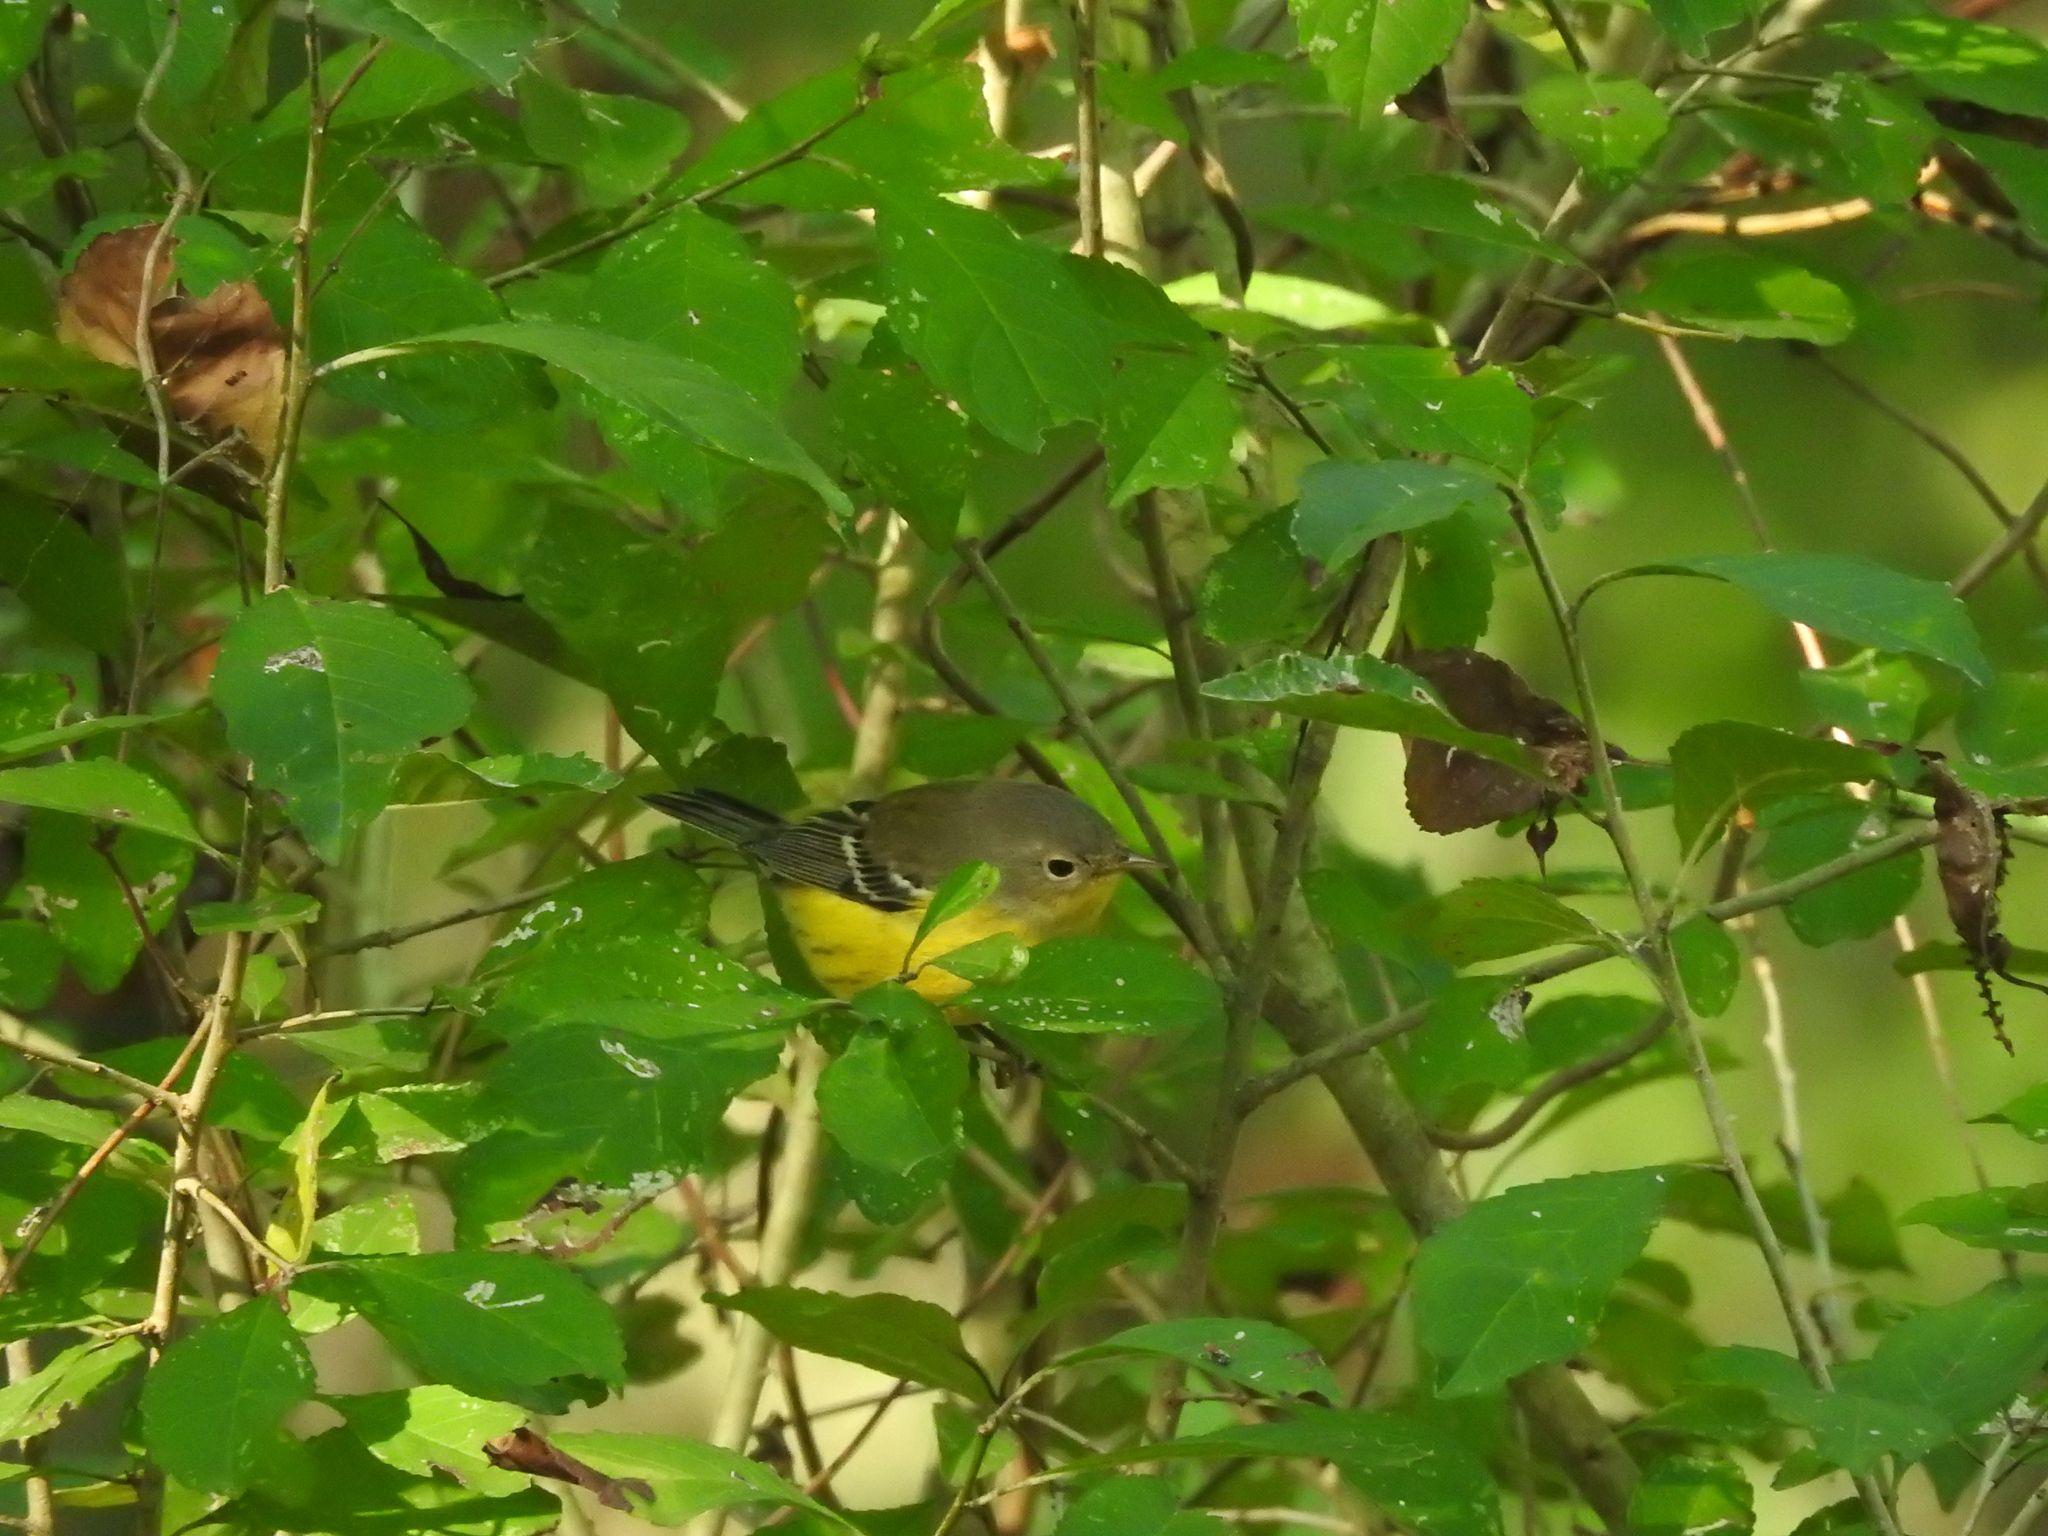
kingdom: Animalia
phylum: Chordata
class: Aves
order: Passeriformes
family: Parulidae
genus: Setophaga
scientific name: Setophaga magnolia
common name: Magnolia warbler
